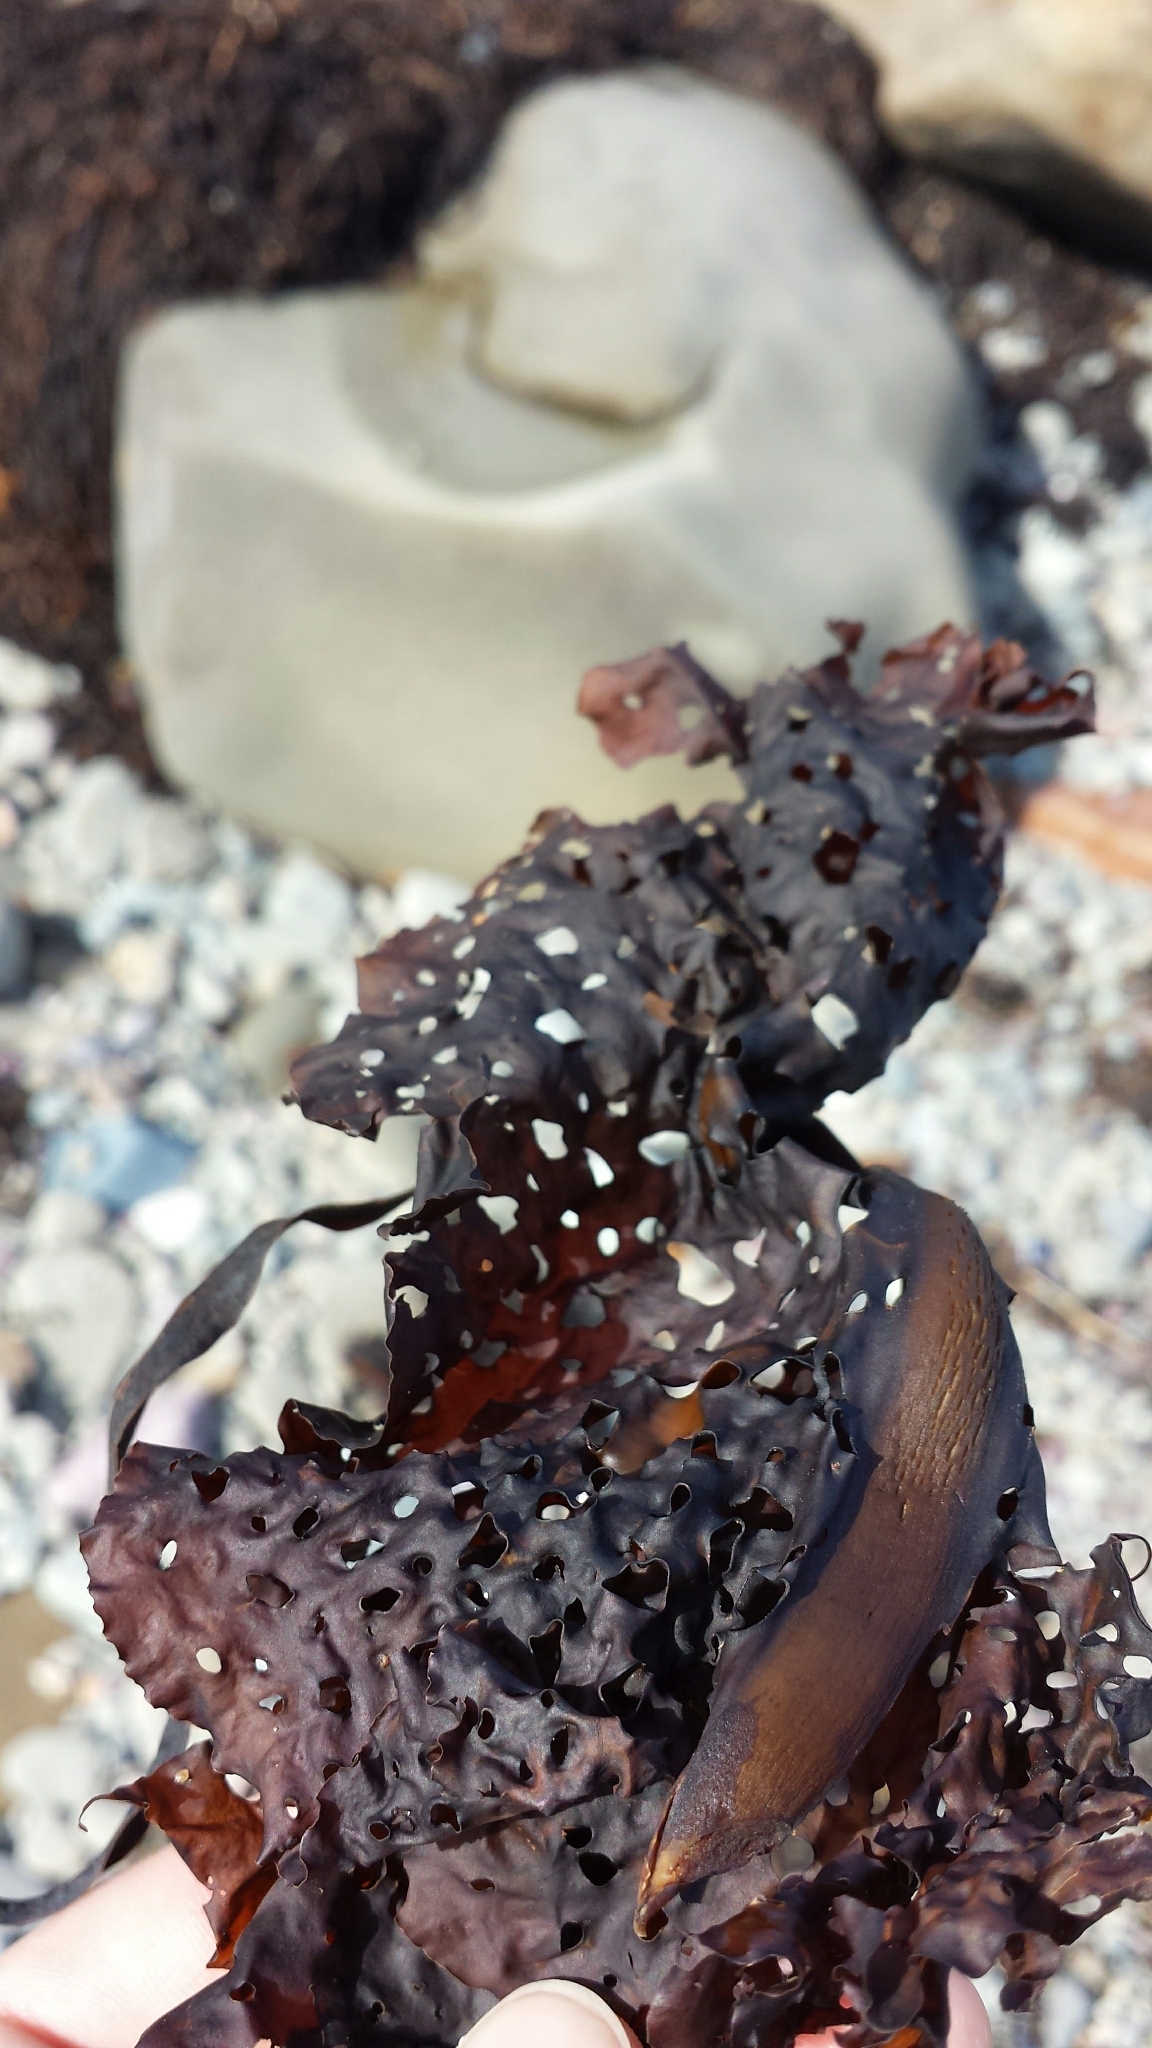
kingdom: Chromista
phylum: Ochrophyta
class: Phaeophyceae
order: Laminariales
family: Costariaceae
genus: Agarum
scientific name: Agarum clathratum
